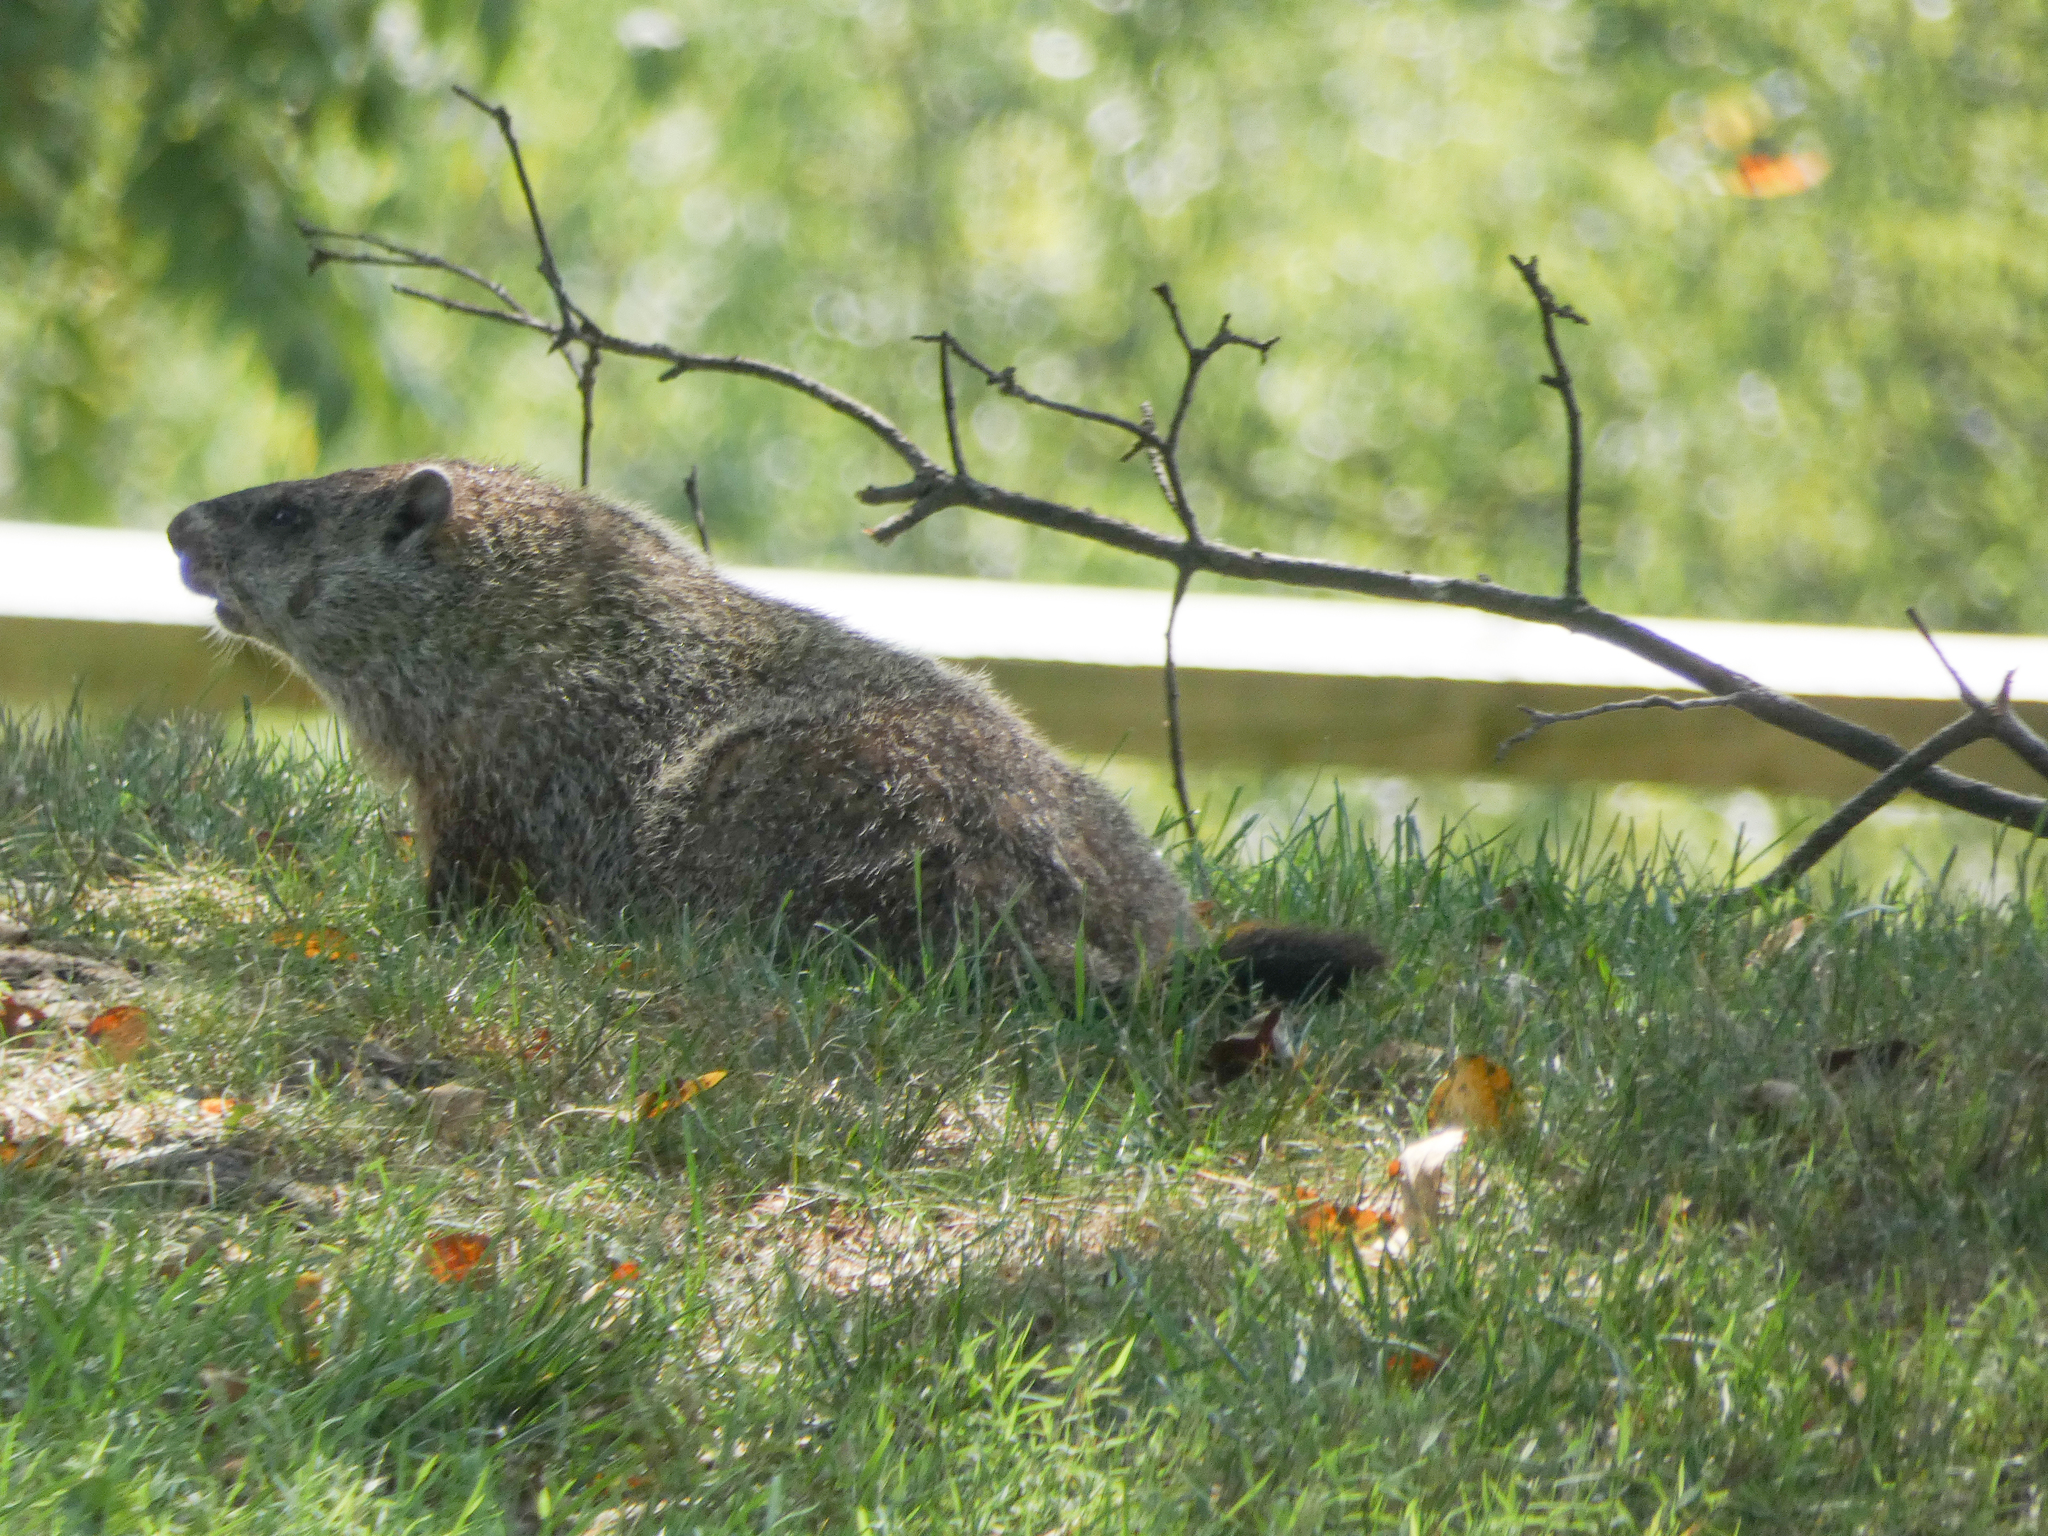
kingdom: Animalia
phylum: Chordata
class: Mammalia
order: Rodentia
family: Sciuridae
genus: Marmota
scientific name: Marmota monax
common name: Groundhog
